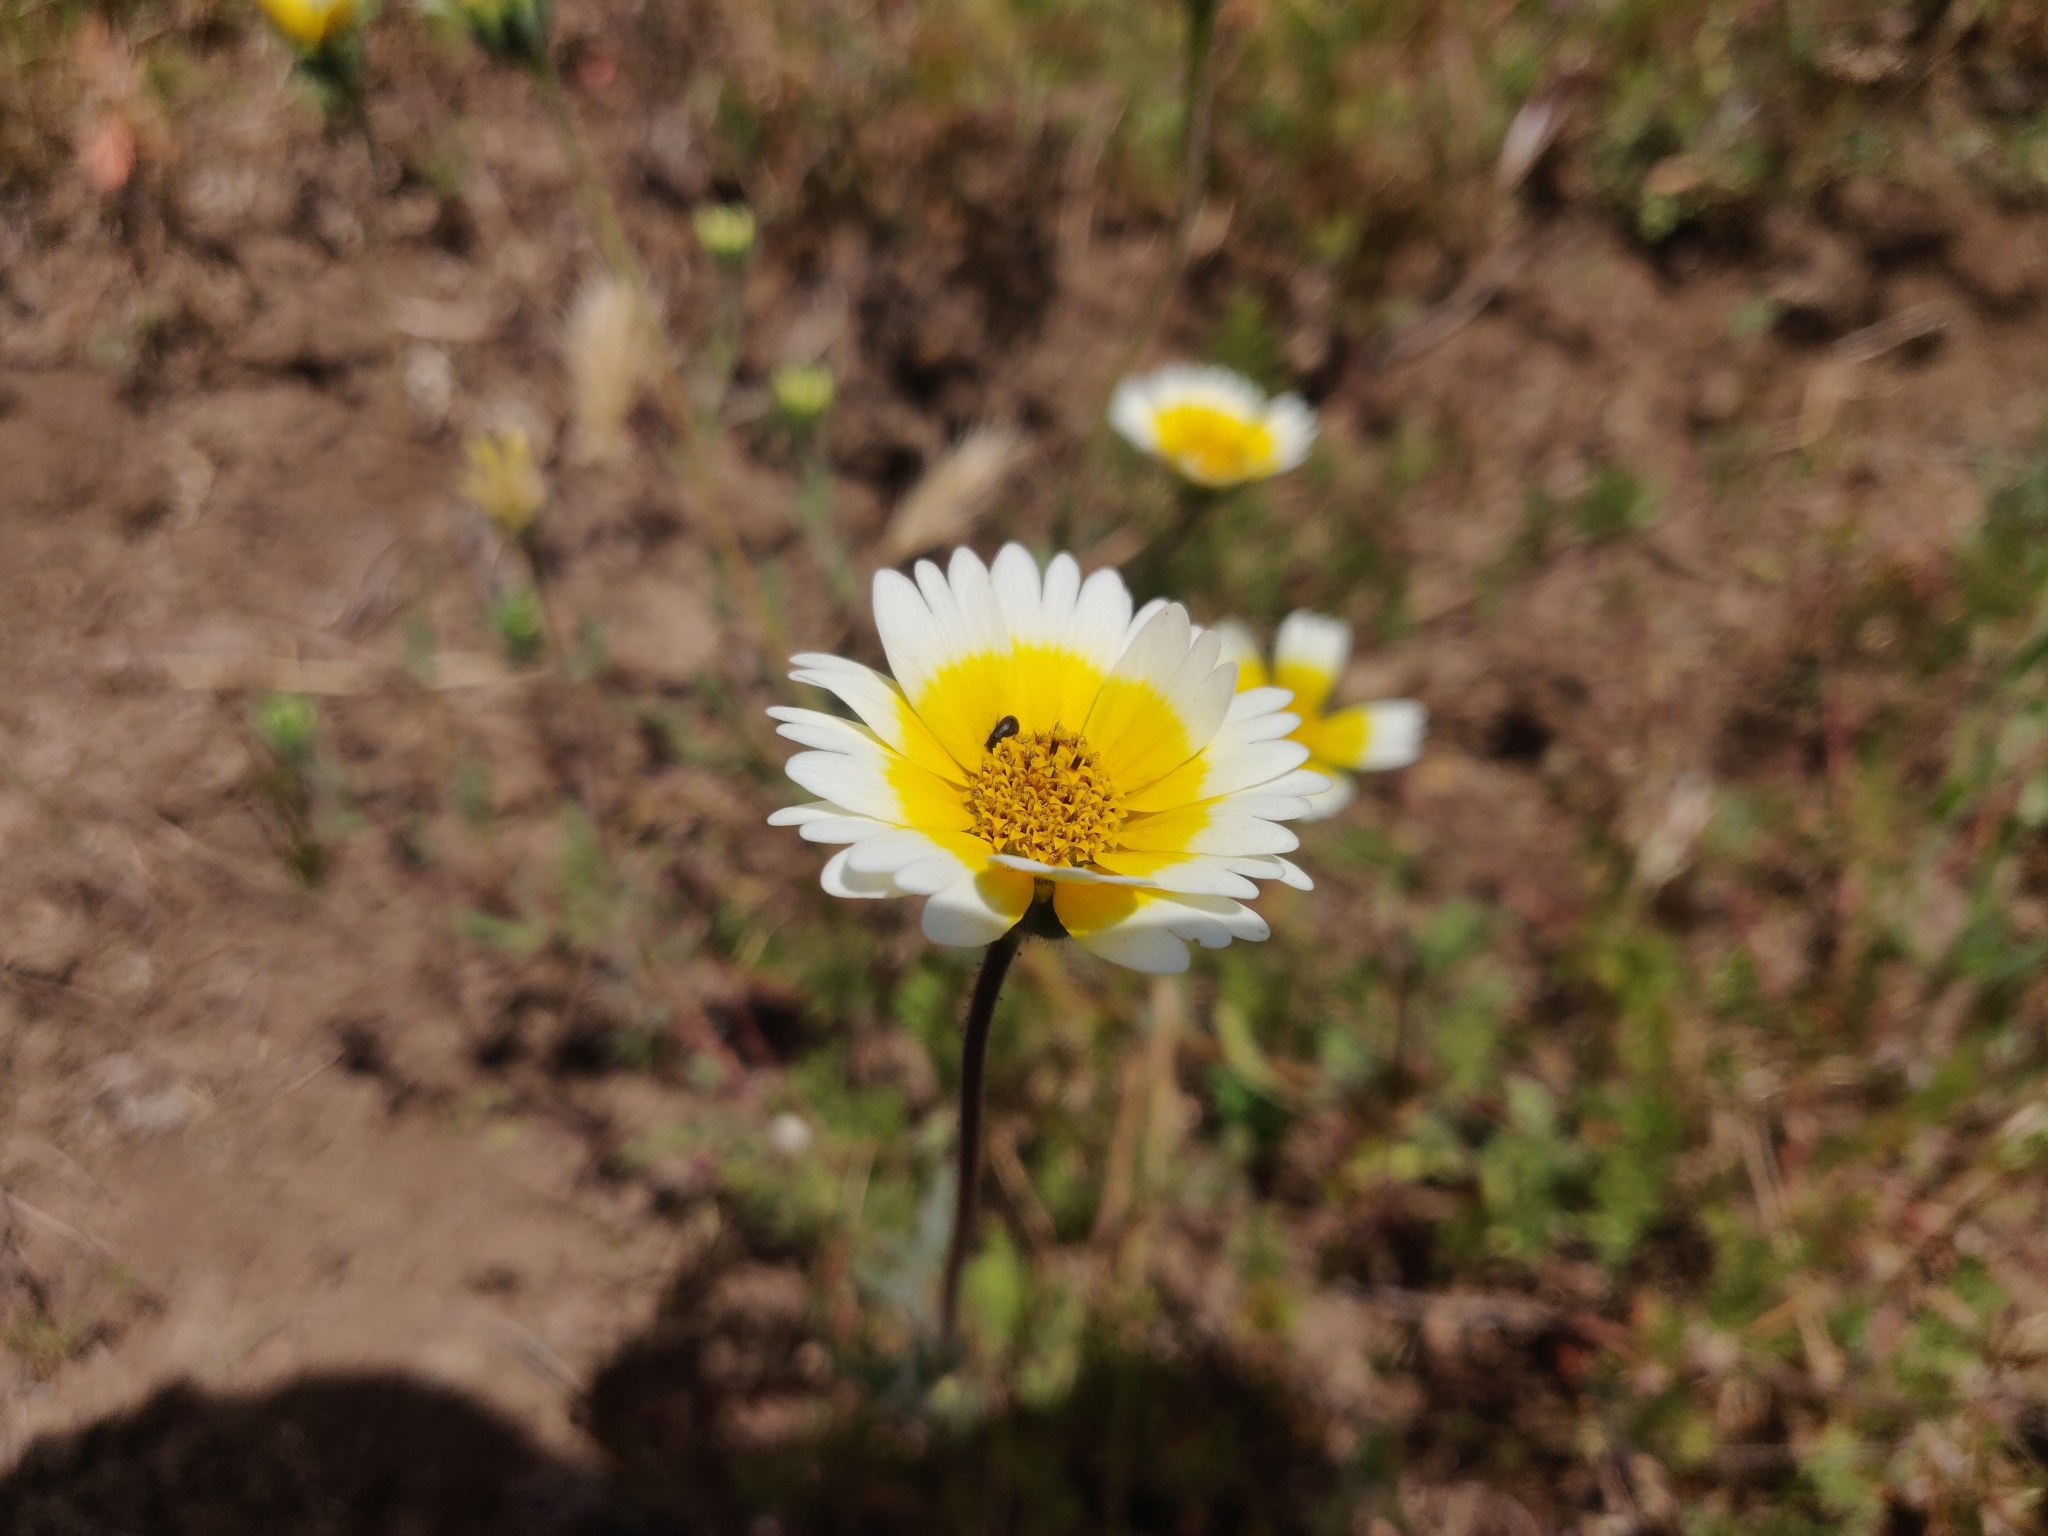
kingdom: Plantae
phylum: Tracheophyta
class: Magnoliopsida
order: Asterales
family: Asteraceae
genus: Layia
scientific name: Layia platyglossa
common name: Tidy-tips
